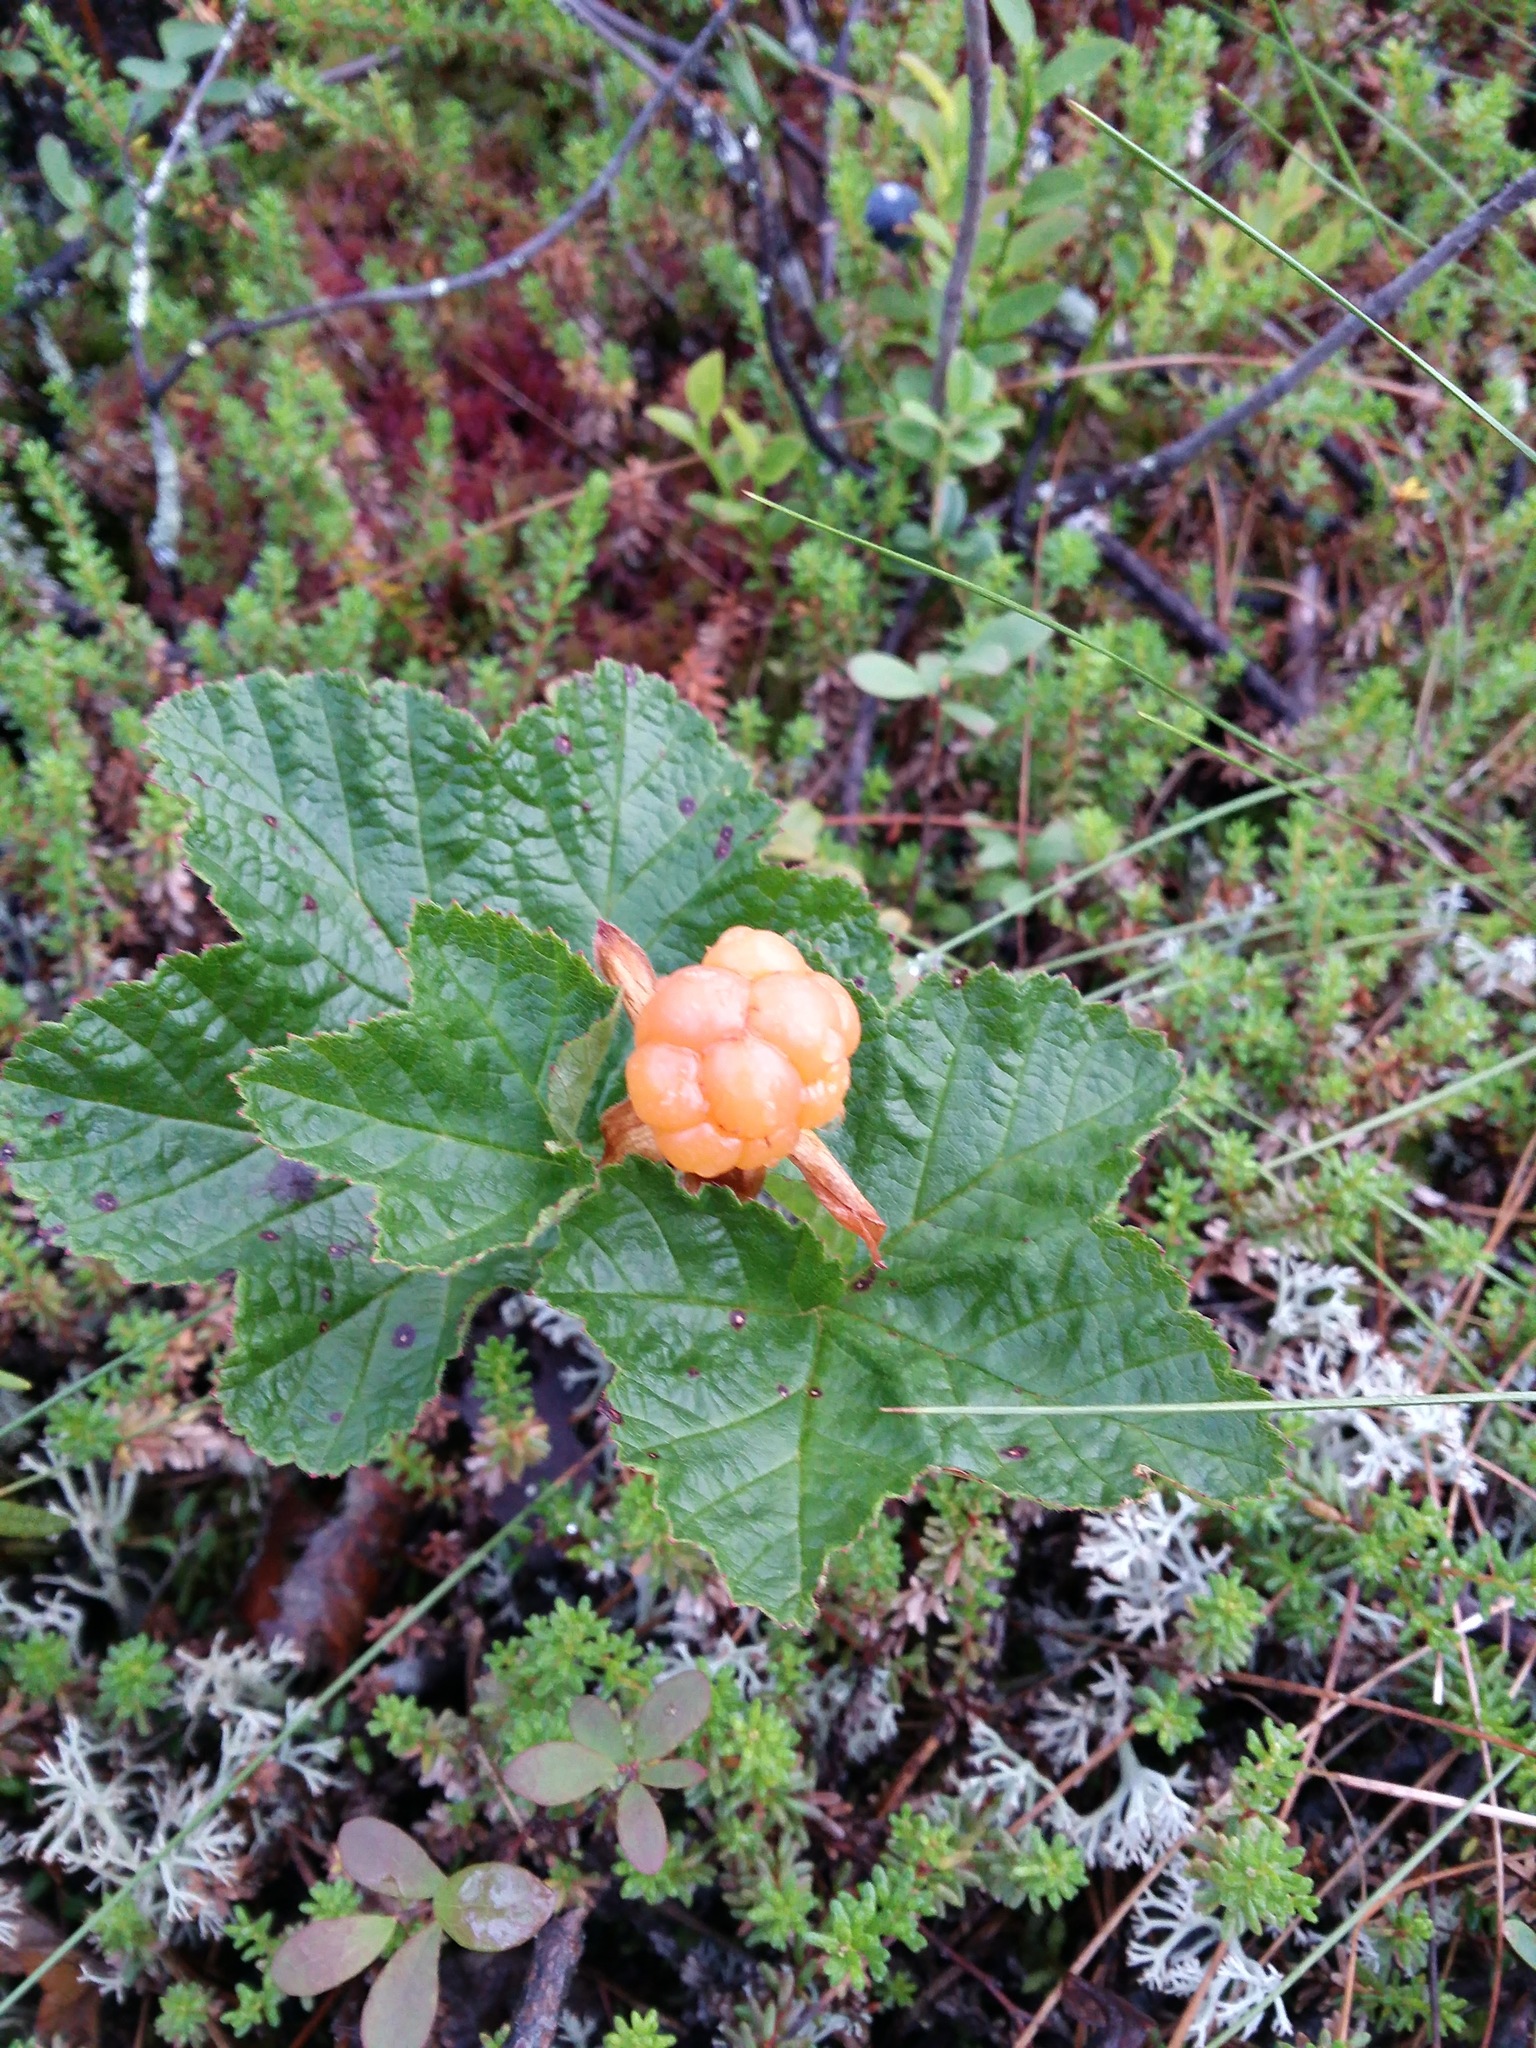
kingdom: Plantae
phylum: Tracheophyta
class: Magnoliopsida
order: Rosales
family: Rosaceae
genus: Rubus
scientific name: Rubus chamaemorus
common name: Cloudberry
